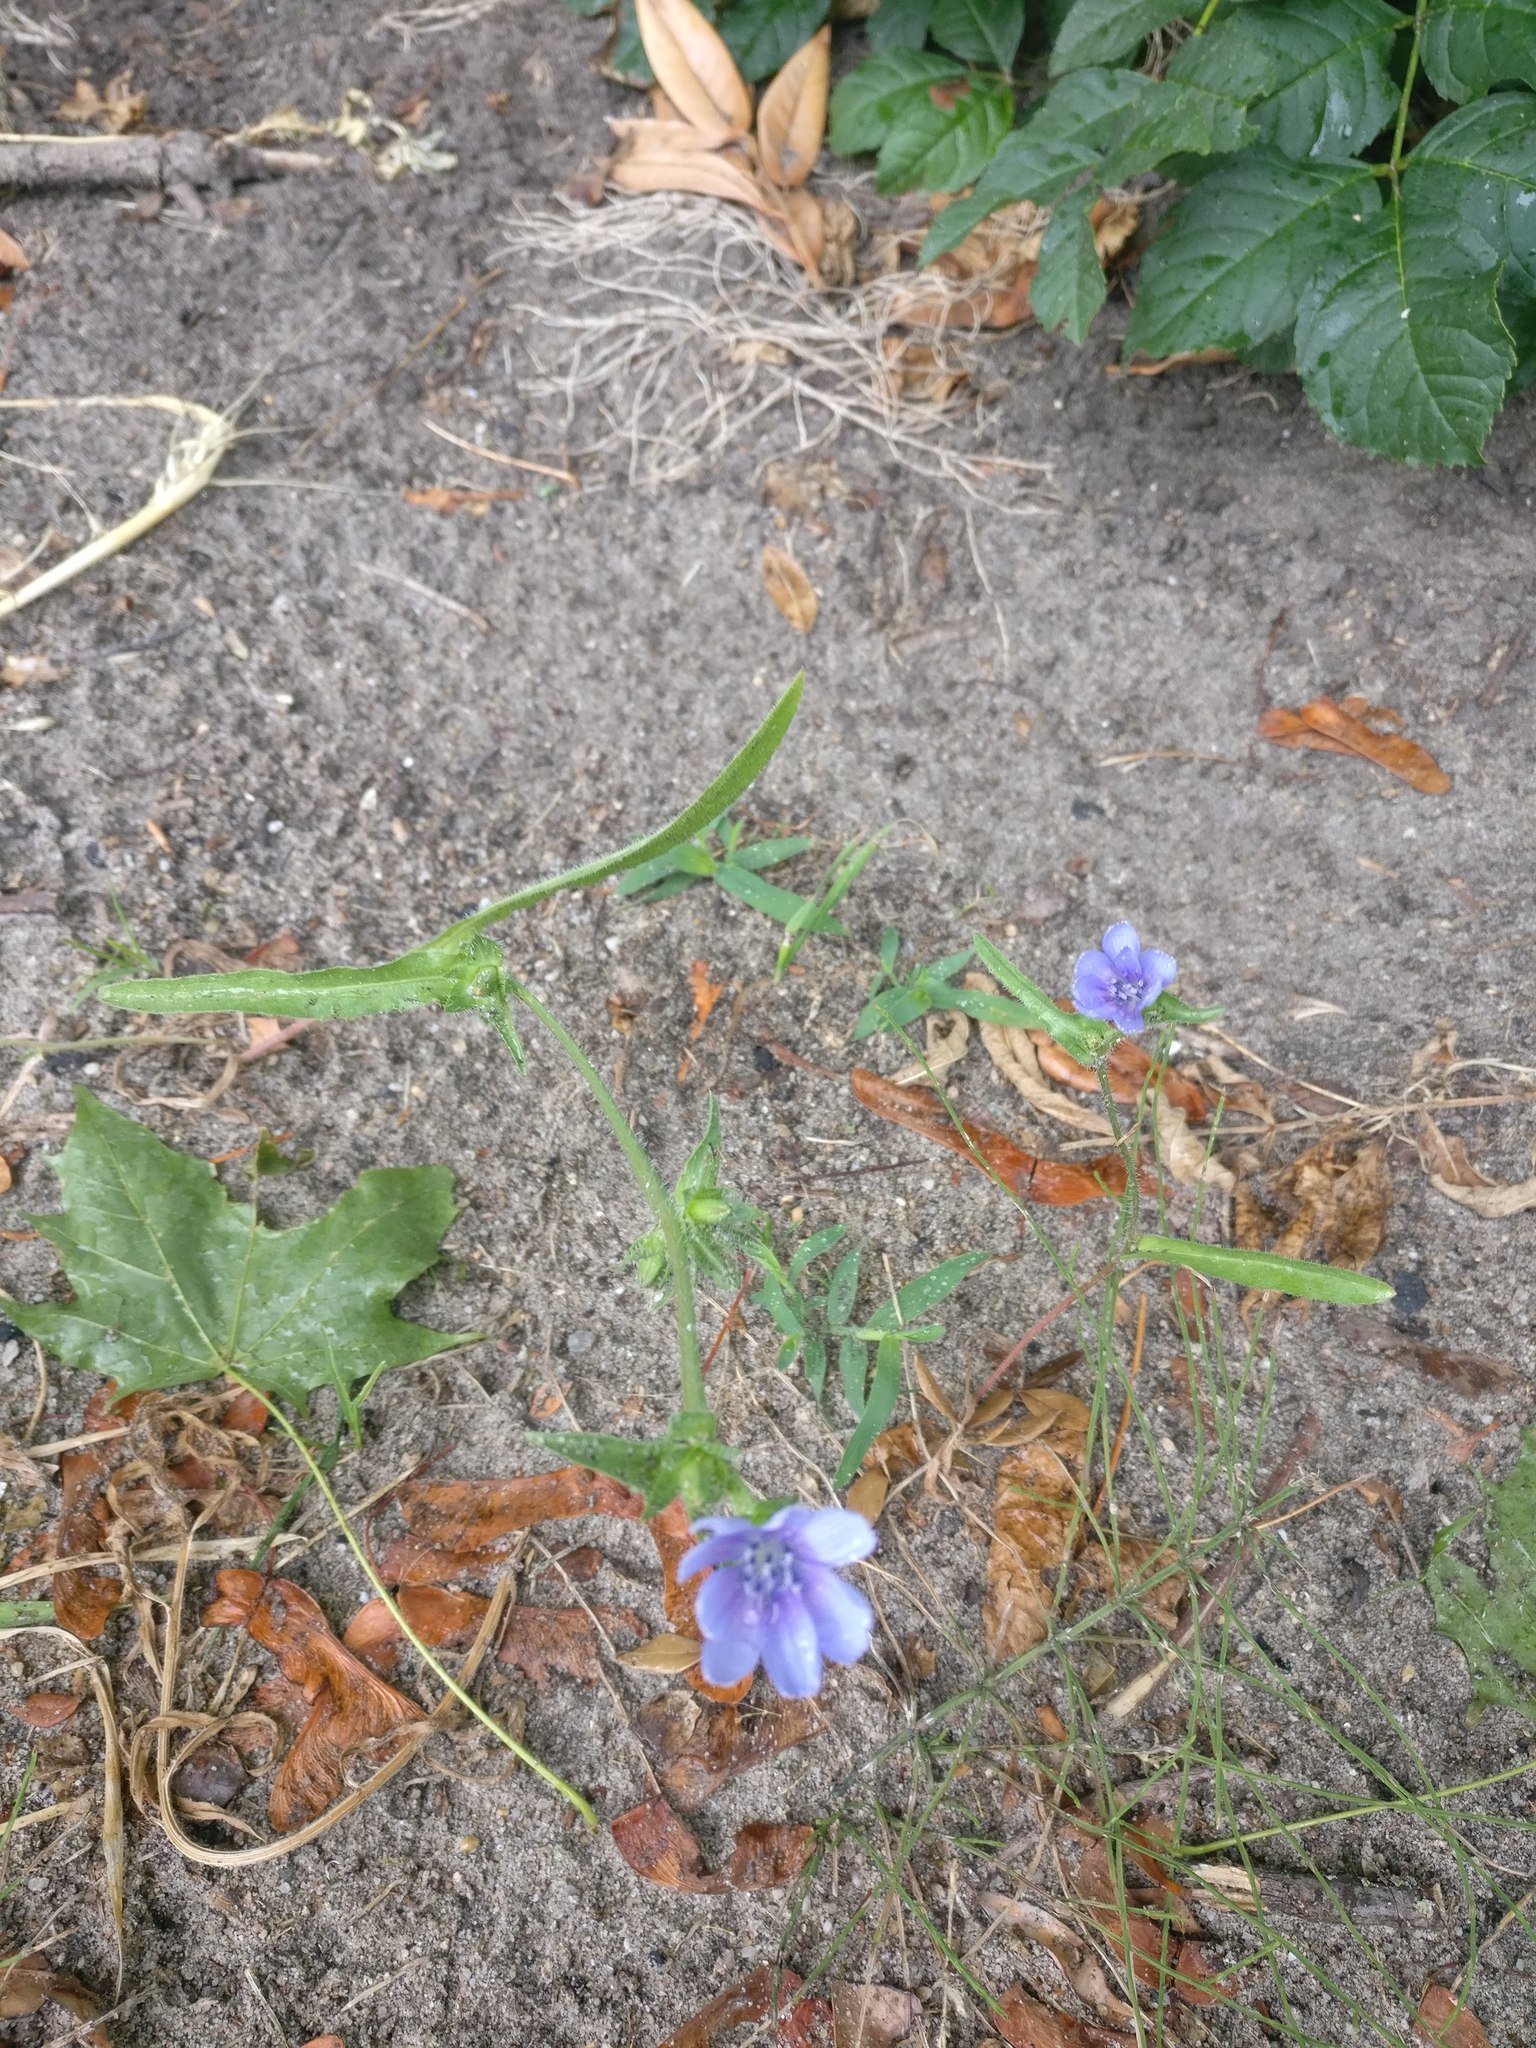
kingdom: Plantae
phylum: Tracheophyta
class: Magnoliopsida
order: Asterales
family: Asteraceae
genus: Cichorium
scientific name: Cichorium intybus
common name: Chicory
